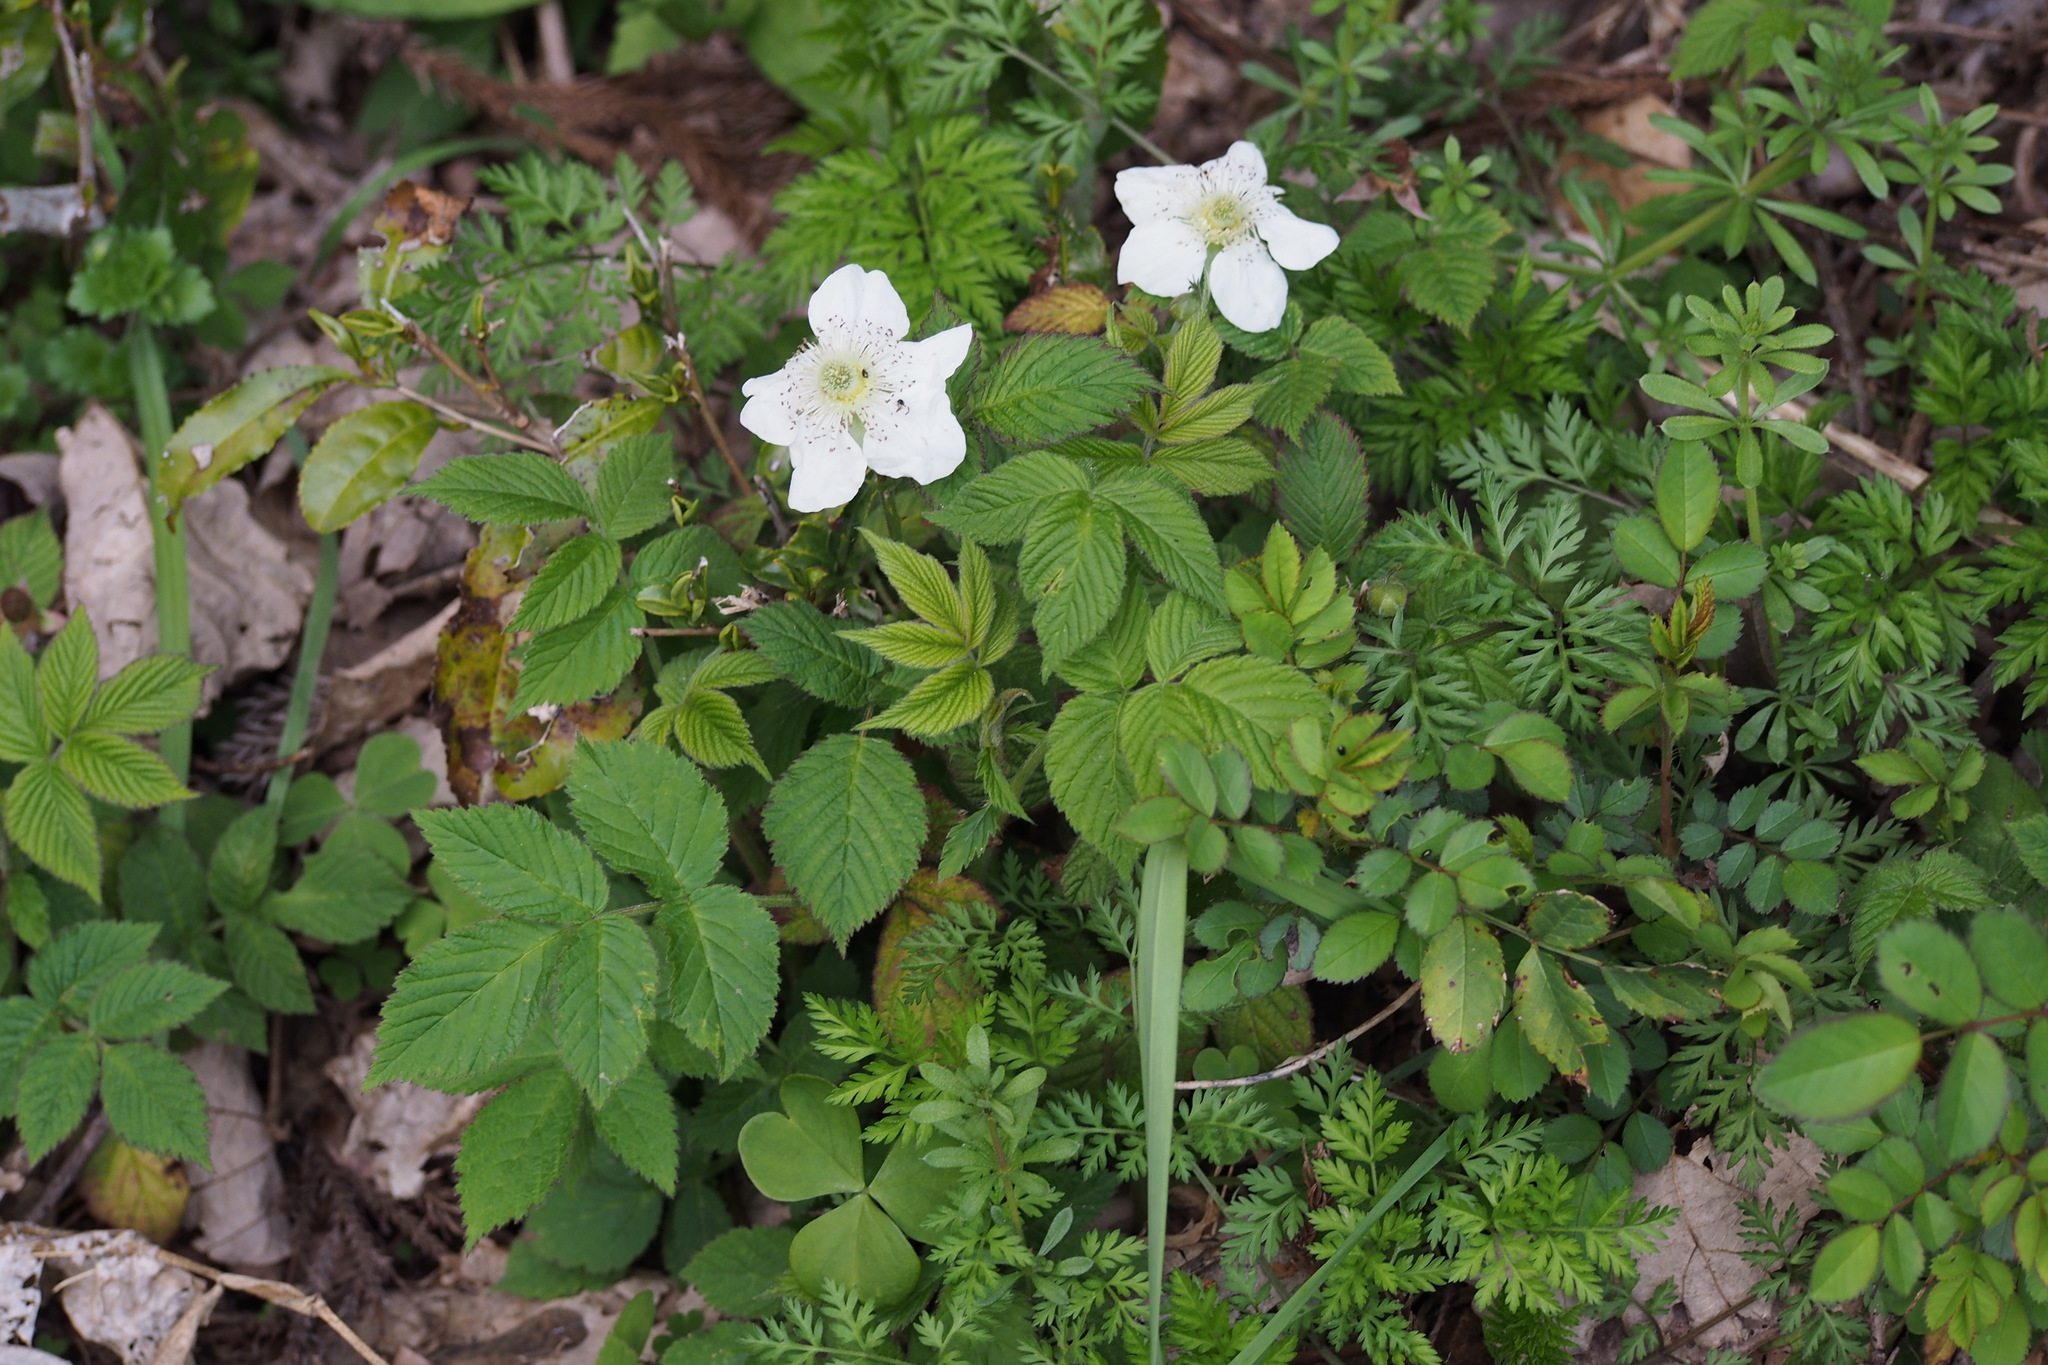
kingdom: Plantae
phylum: Tracheophyta
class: Magnoliopsida
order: Rosales
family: Rosaceae
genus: Rubus
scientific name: Rubus hirsutus
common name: Hirsute raspberry
